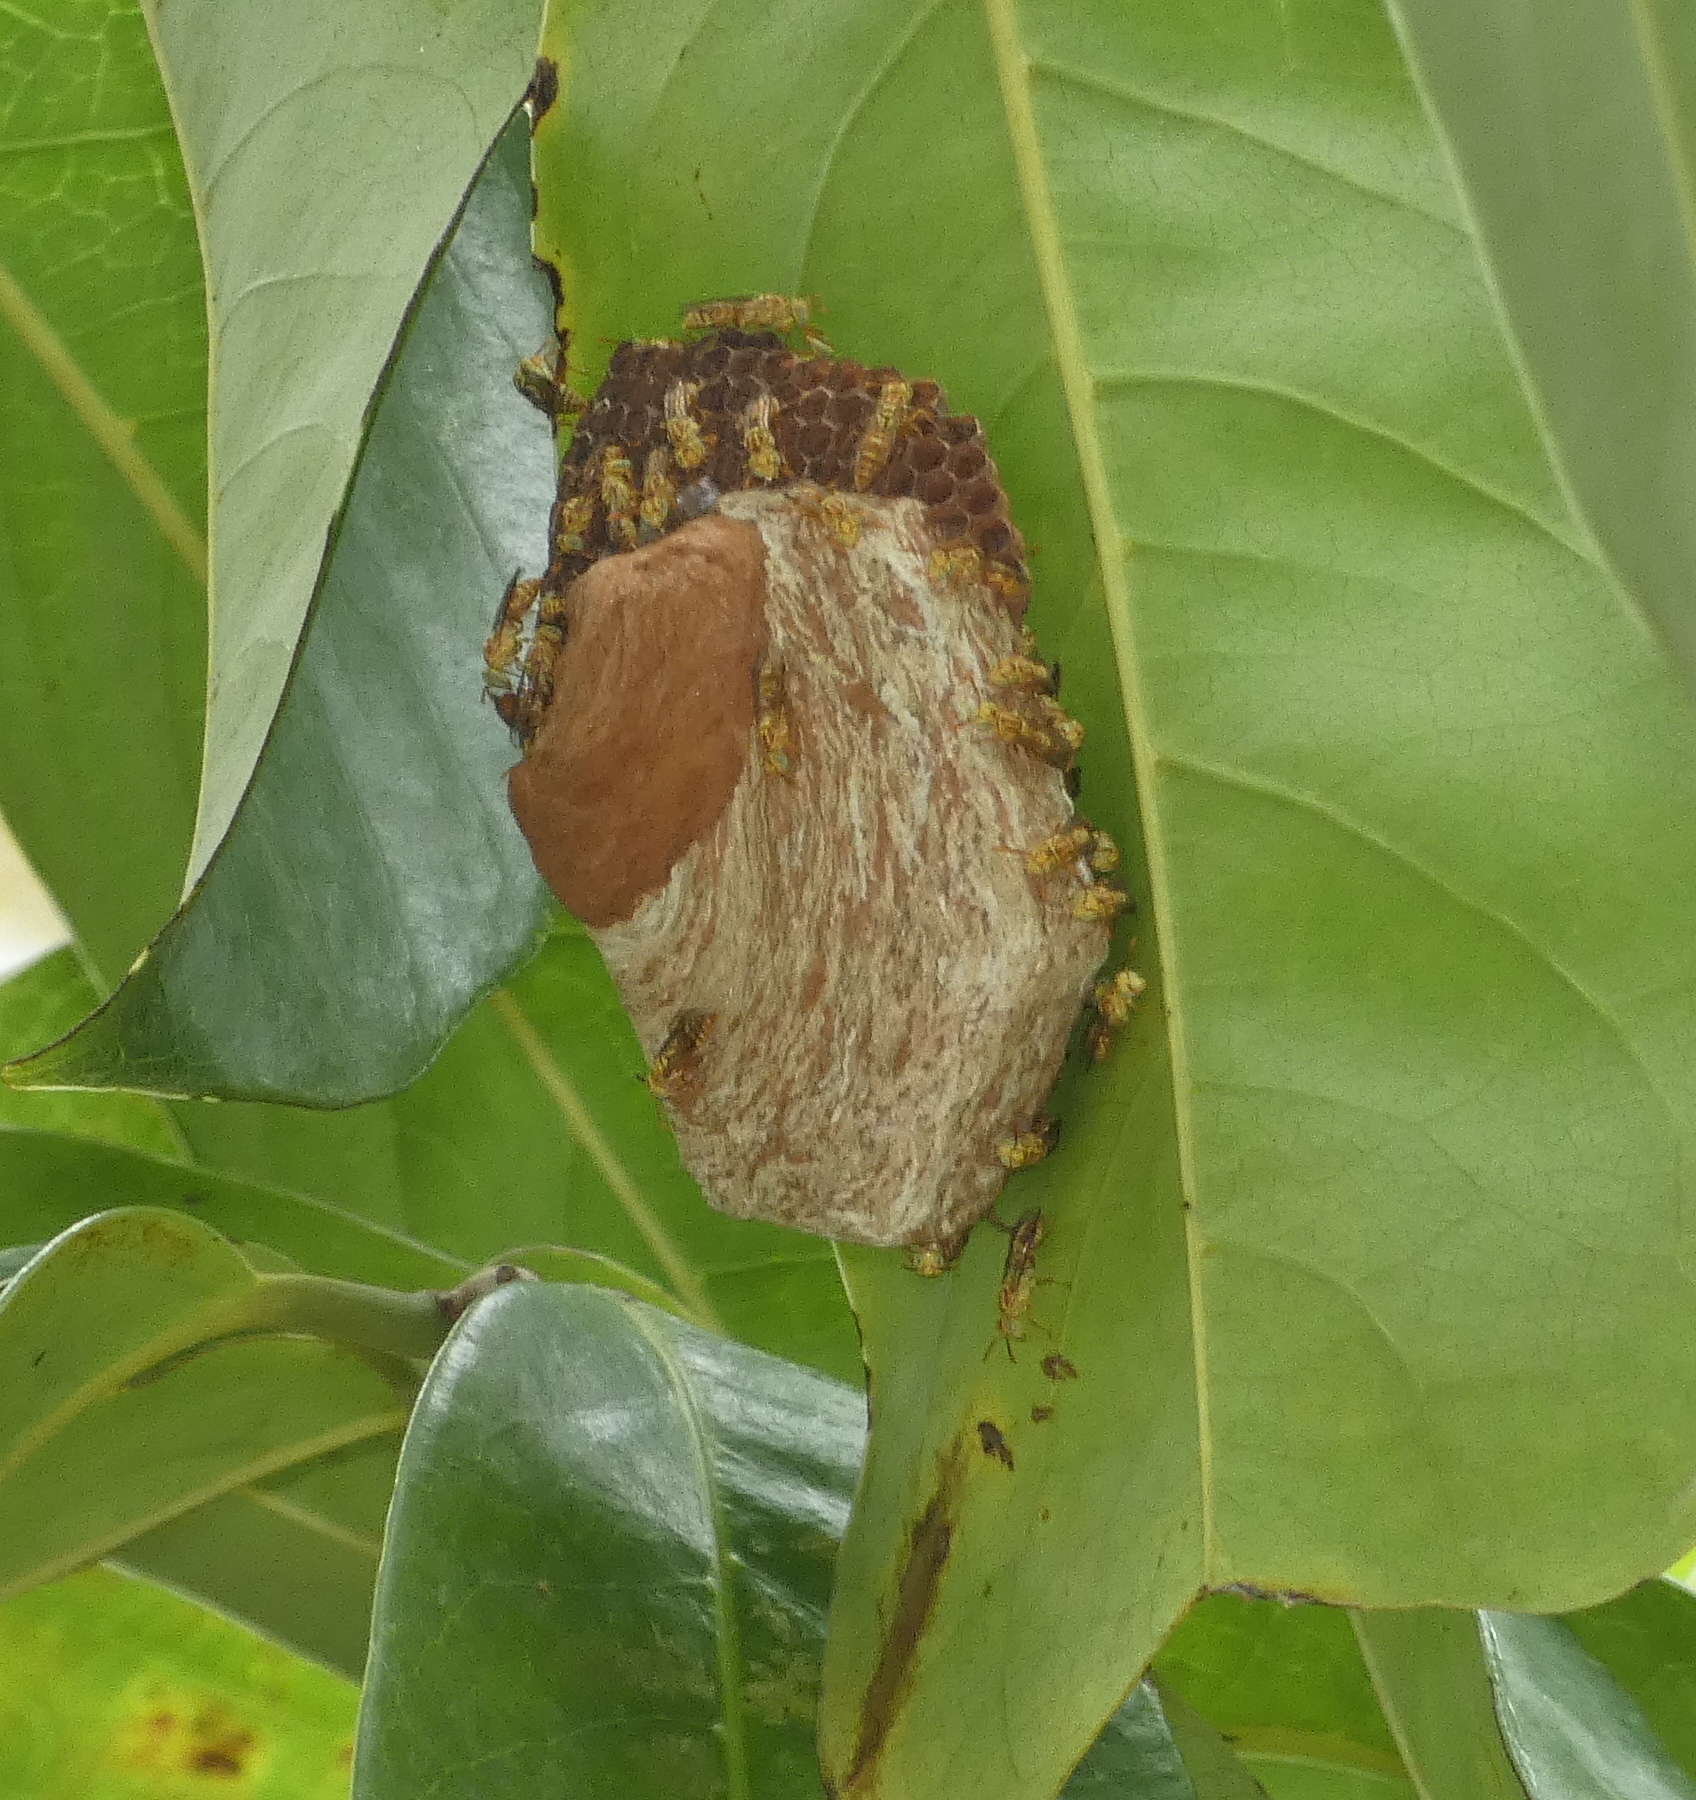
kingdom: Animalia
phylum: Arthropoda
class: Insecta
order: Hymenoptera
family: Vespidae
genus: Protopolybia
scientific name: Protopolybia potiguara
